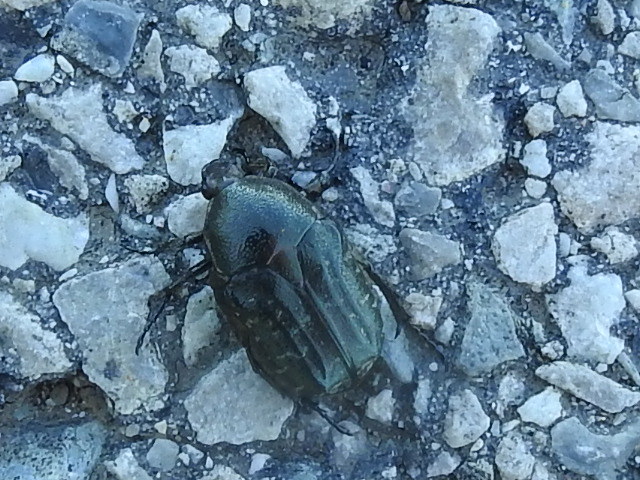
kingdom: Animalia
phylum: Arthropoda
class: Insecta
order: Coleoptera
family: Scarabaeidae
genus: Euphoria
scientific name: Euphoria sepulcralis
